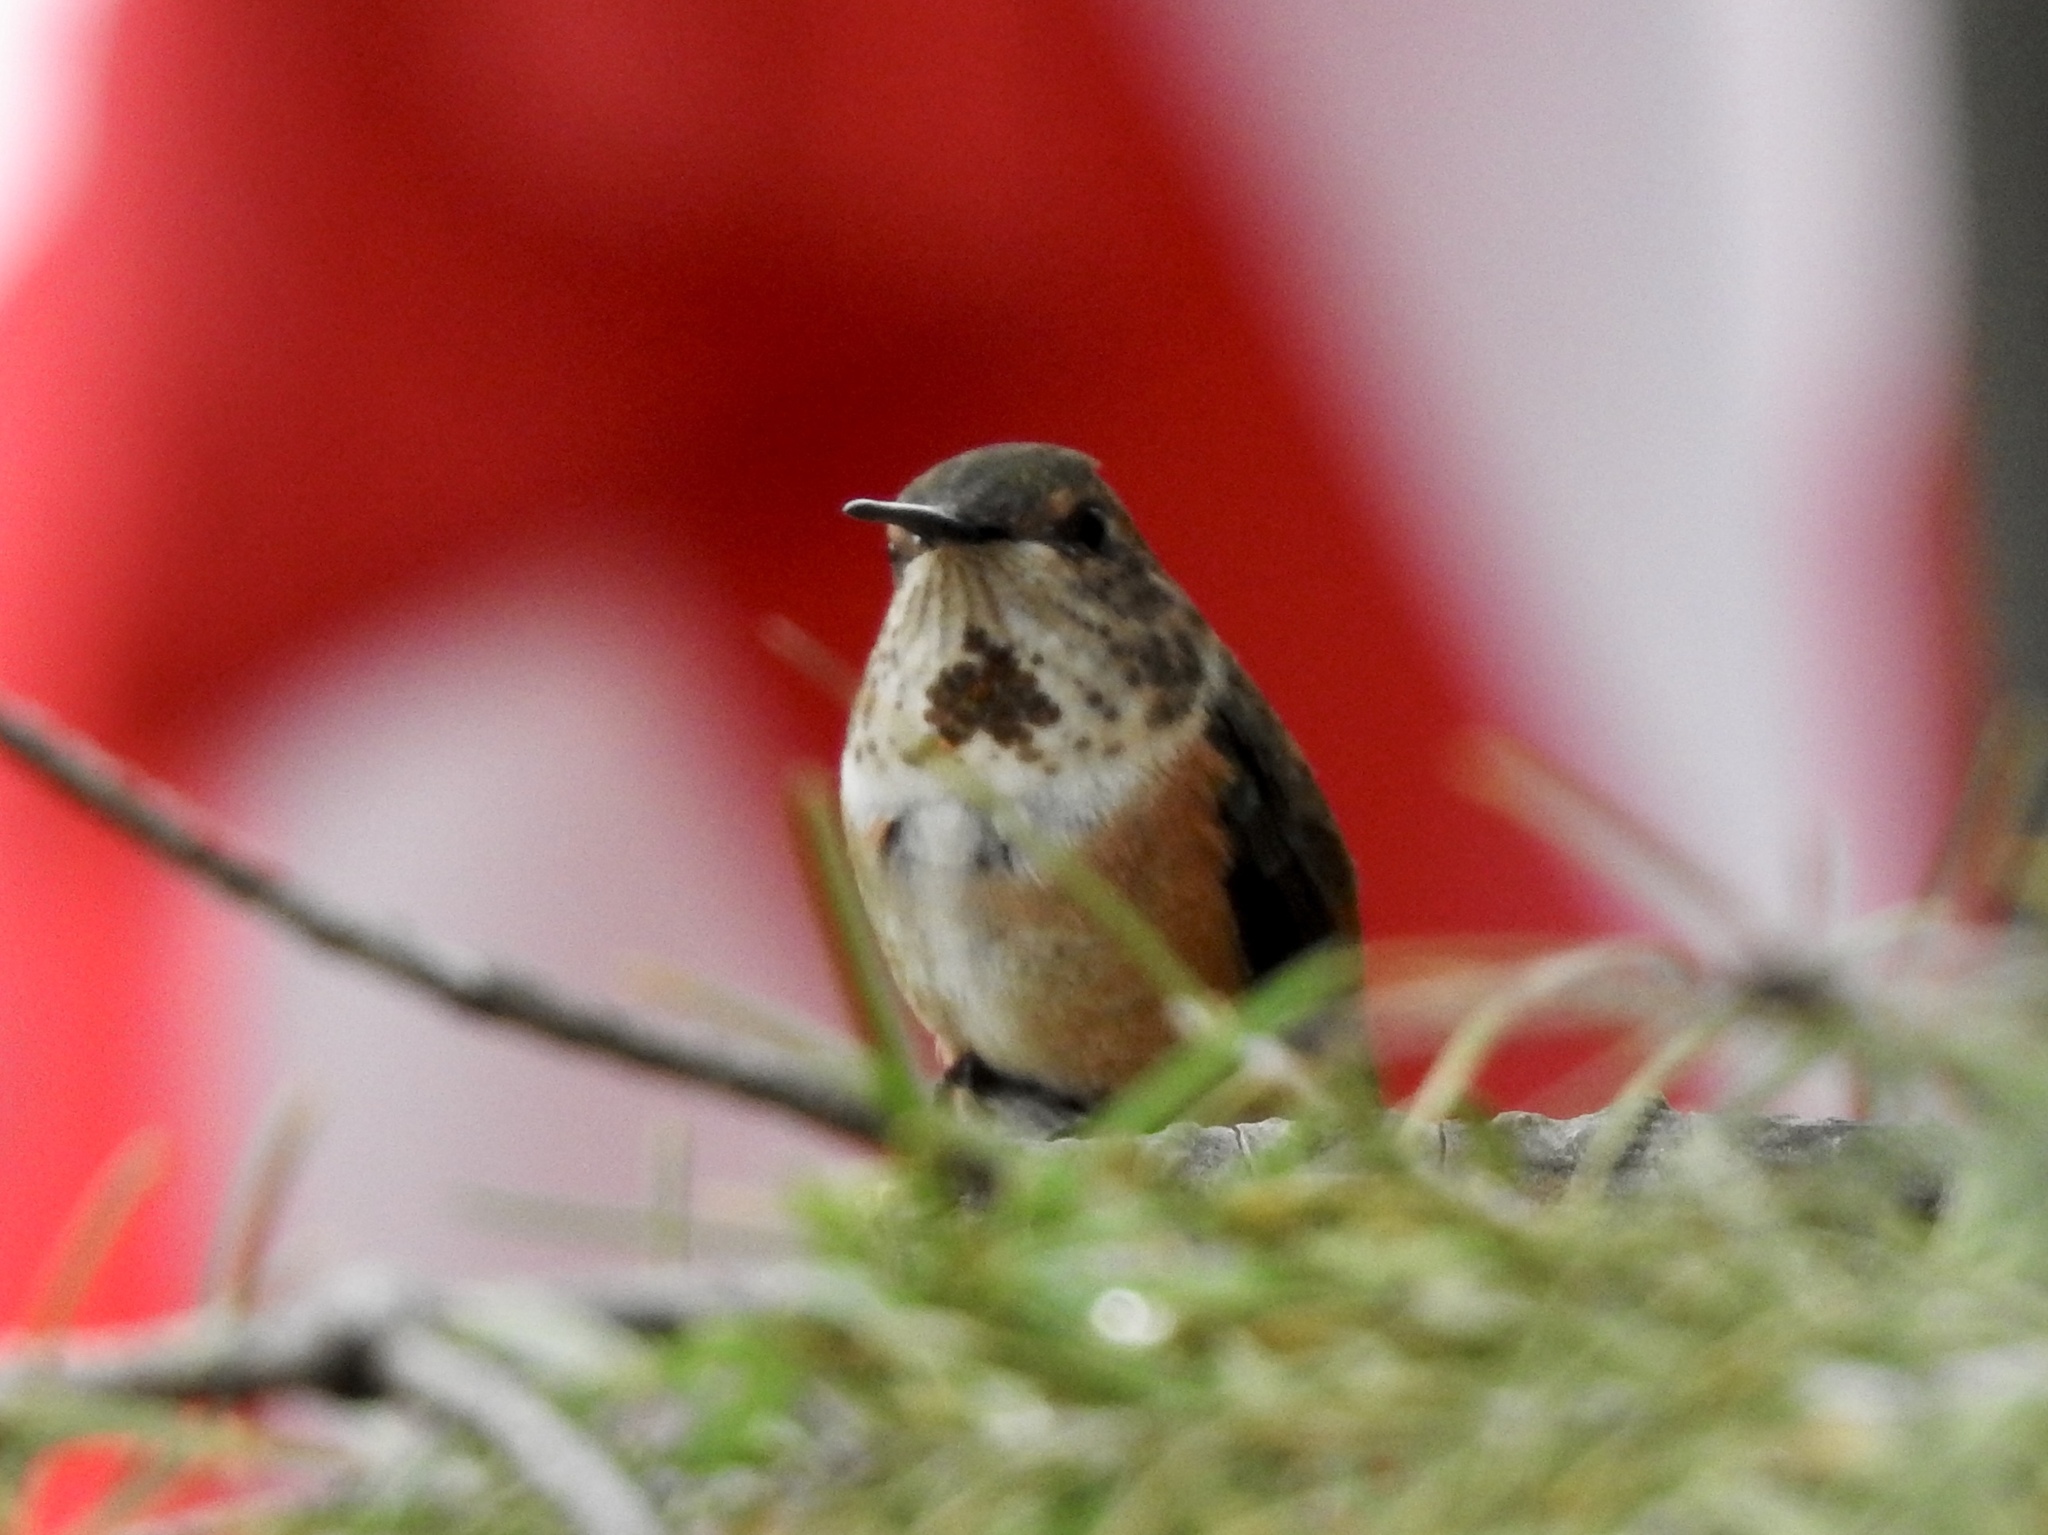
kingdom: Animalia
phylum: Chordata
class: Aves
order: Apodiformes
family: Trochilidae
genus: Selasphorus
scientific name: Selasphorus rufus
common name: Rufous hummingbird
